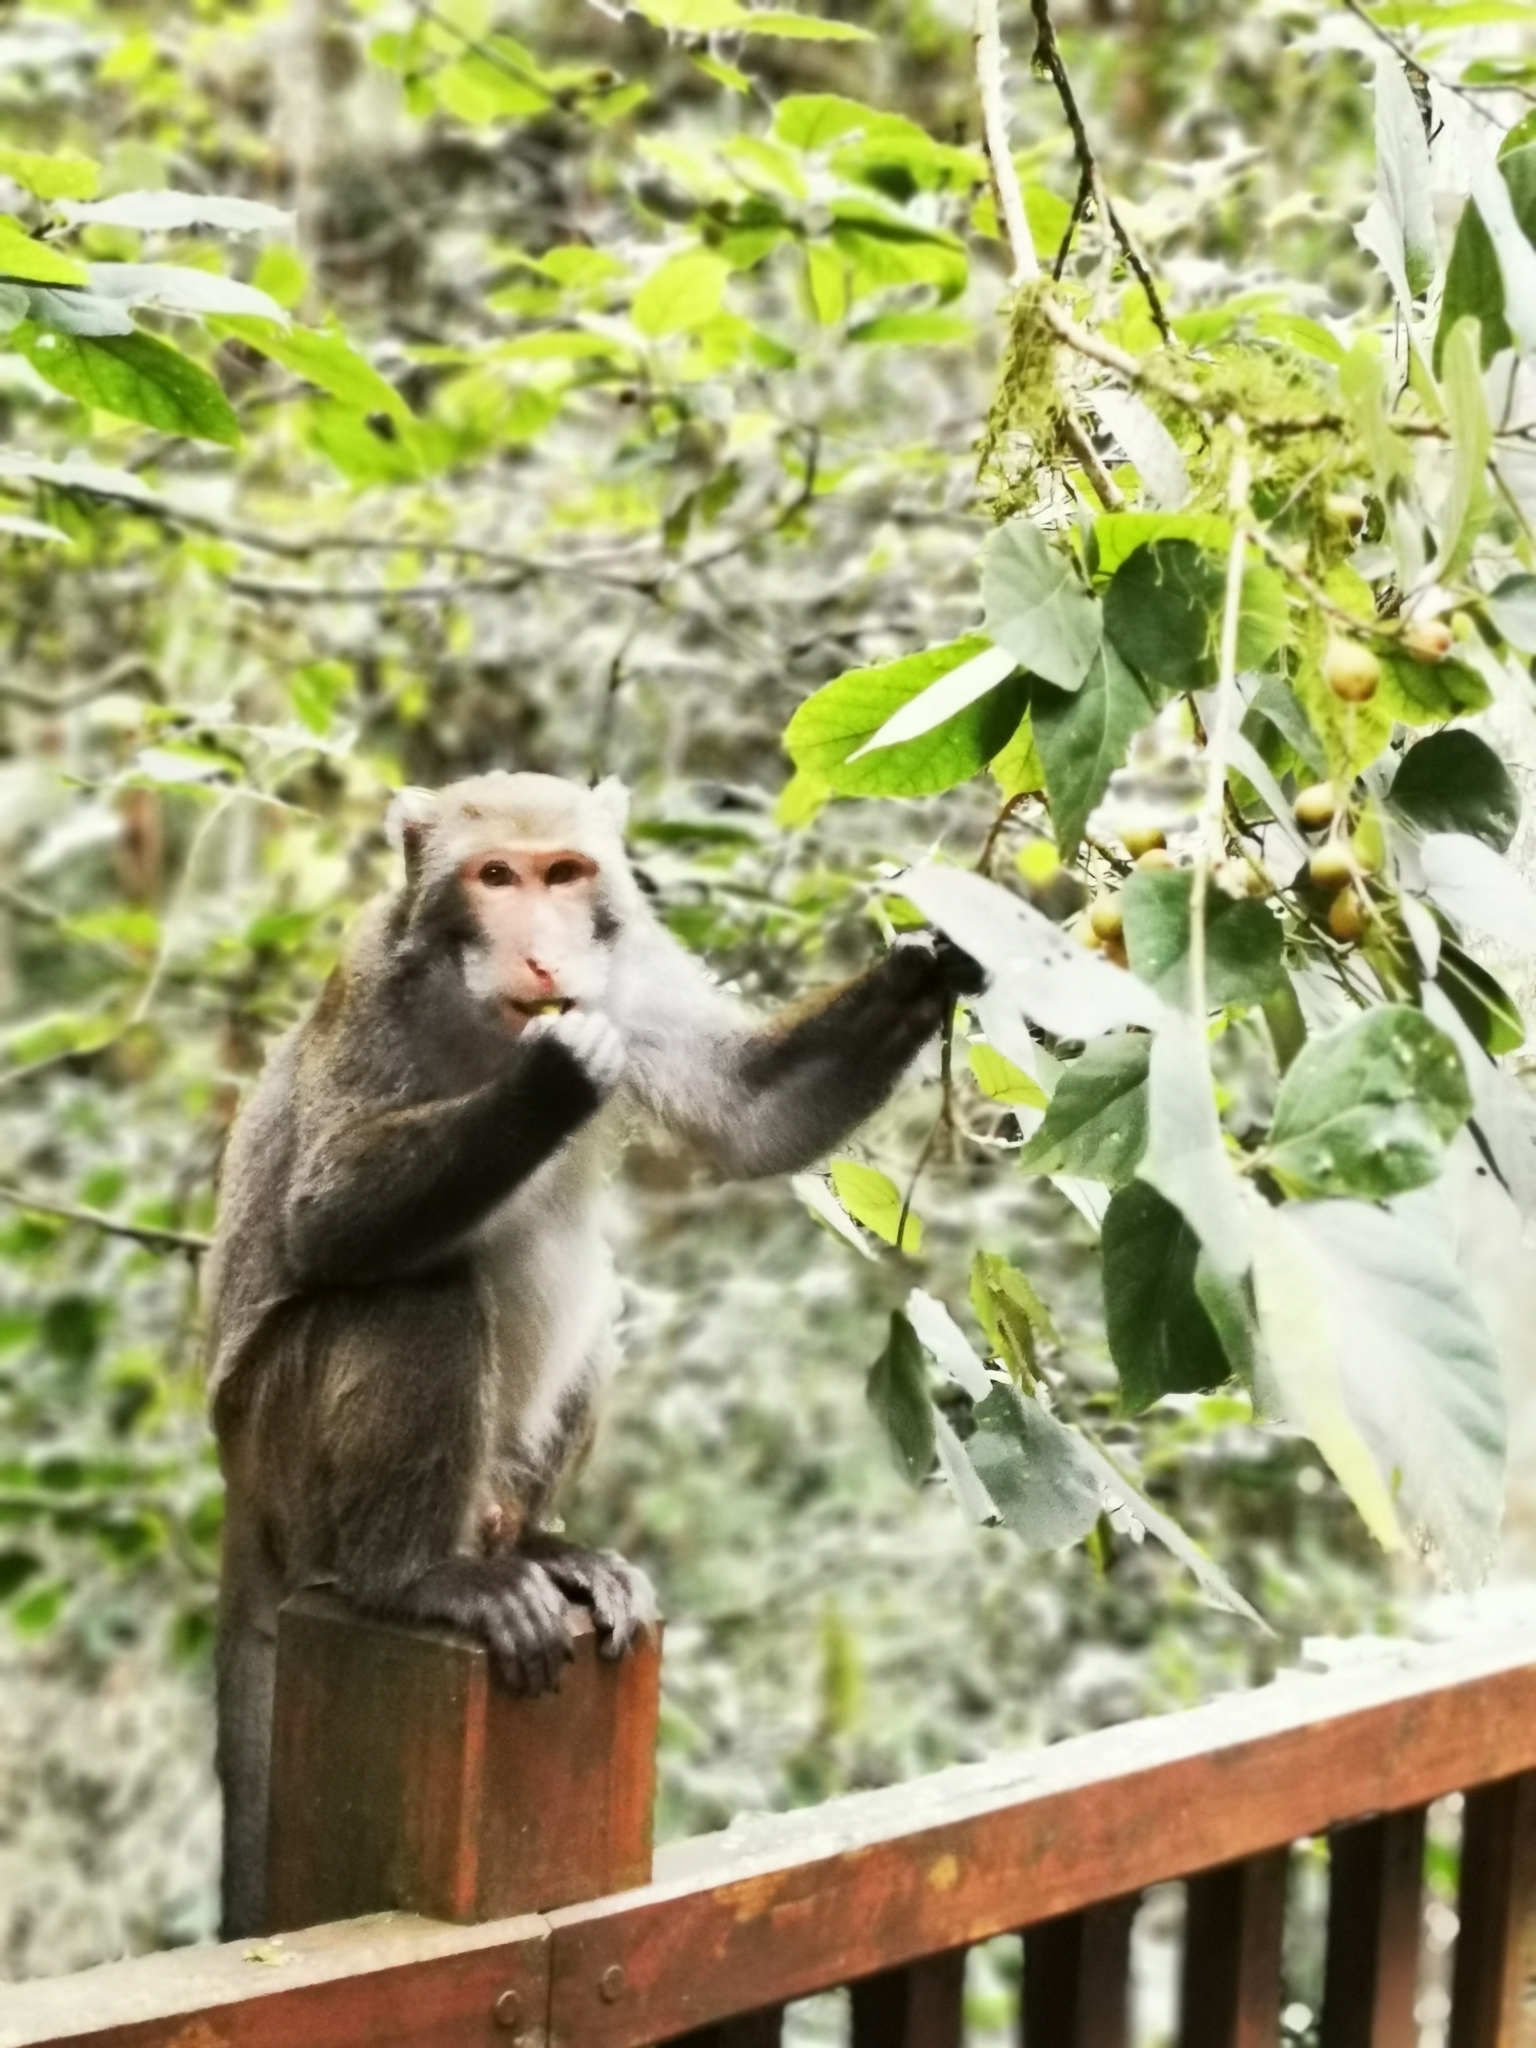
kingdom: Animalia
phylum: Chordata
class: Mammalia
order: Primates
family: Cercopithecidae
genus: Macaca
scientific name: Macaca cyclopis
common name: Formosan rock macaque
